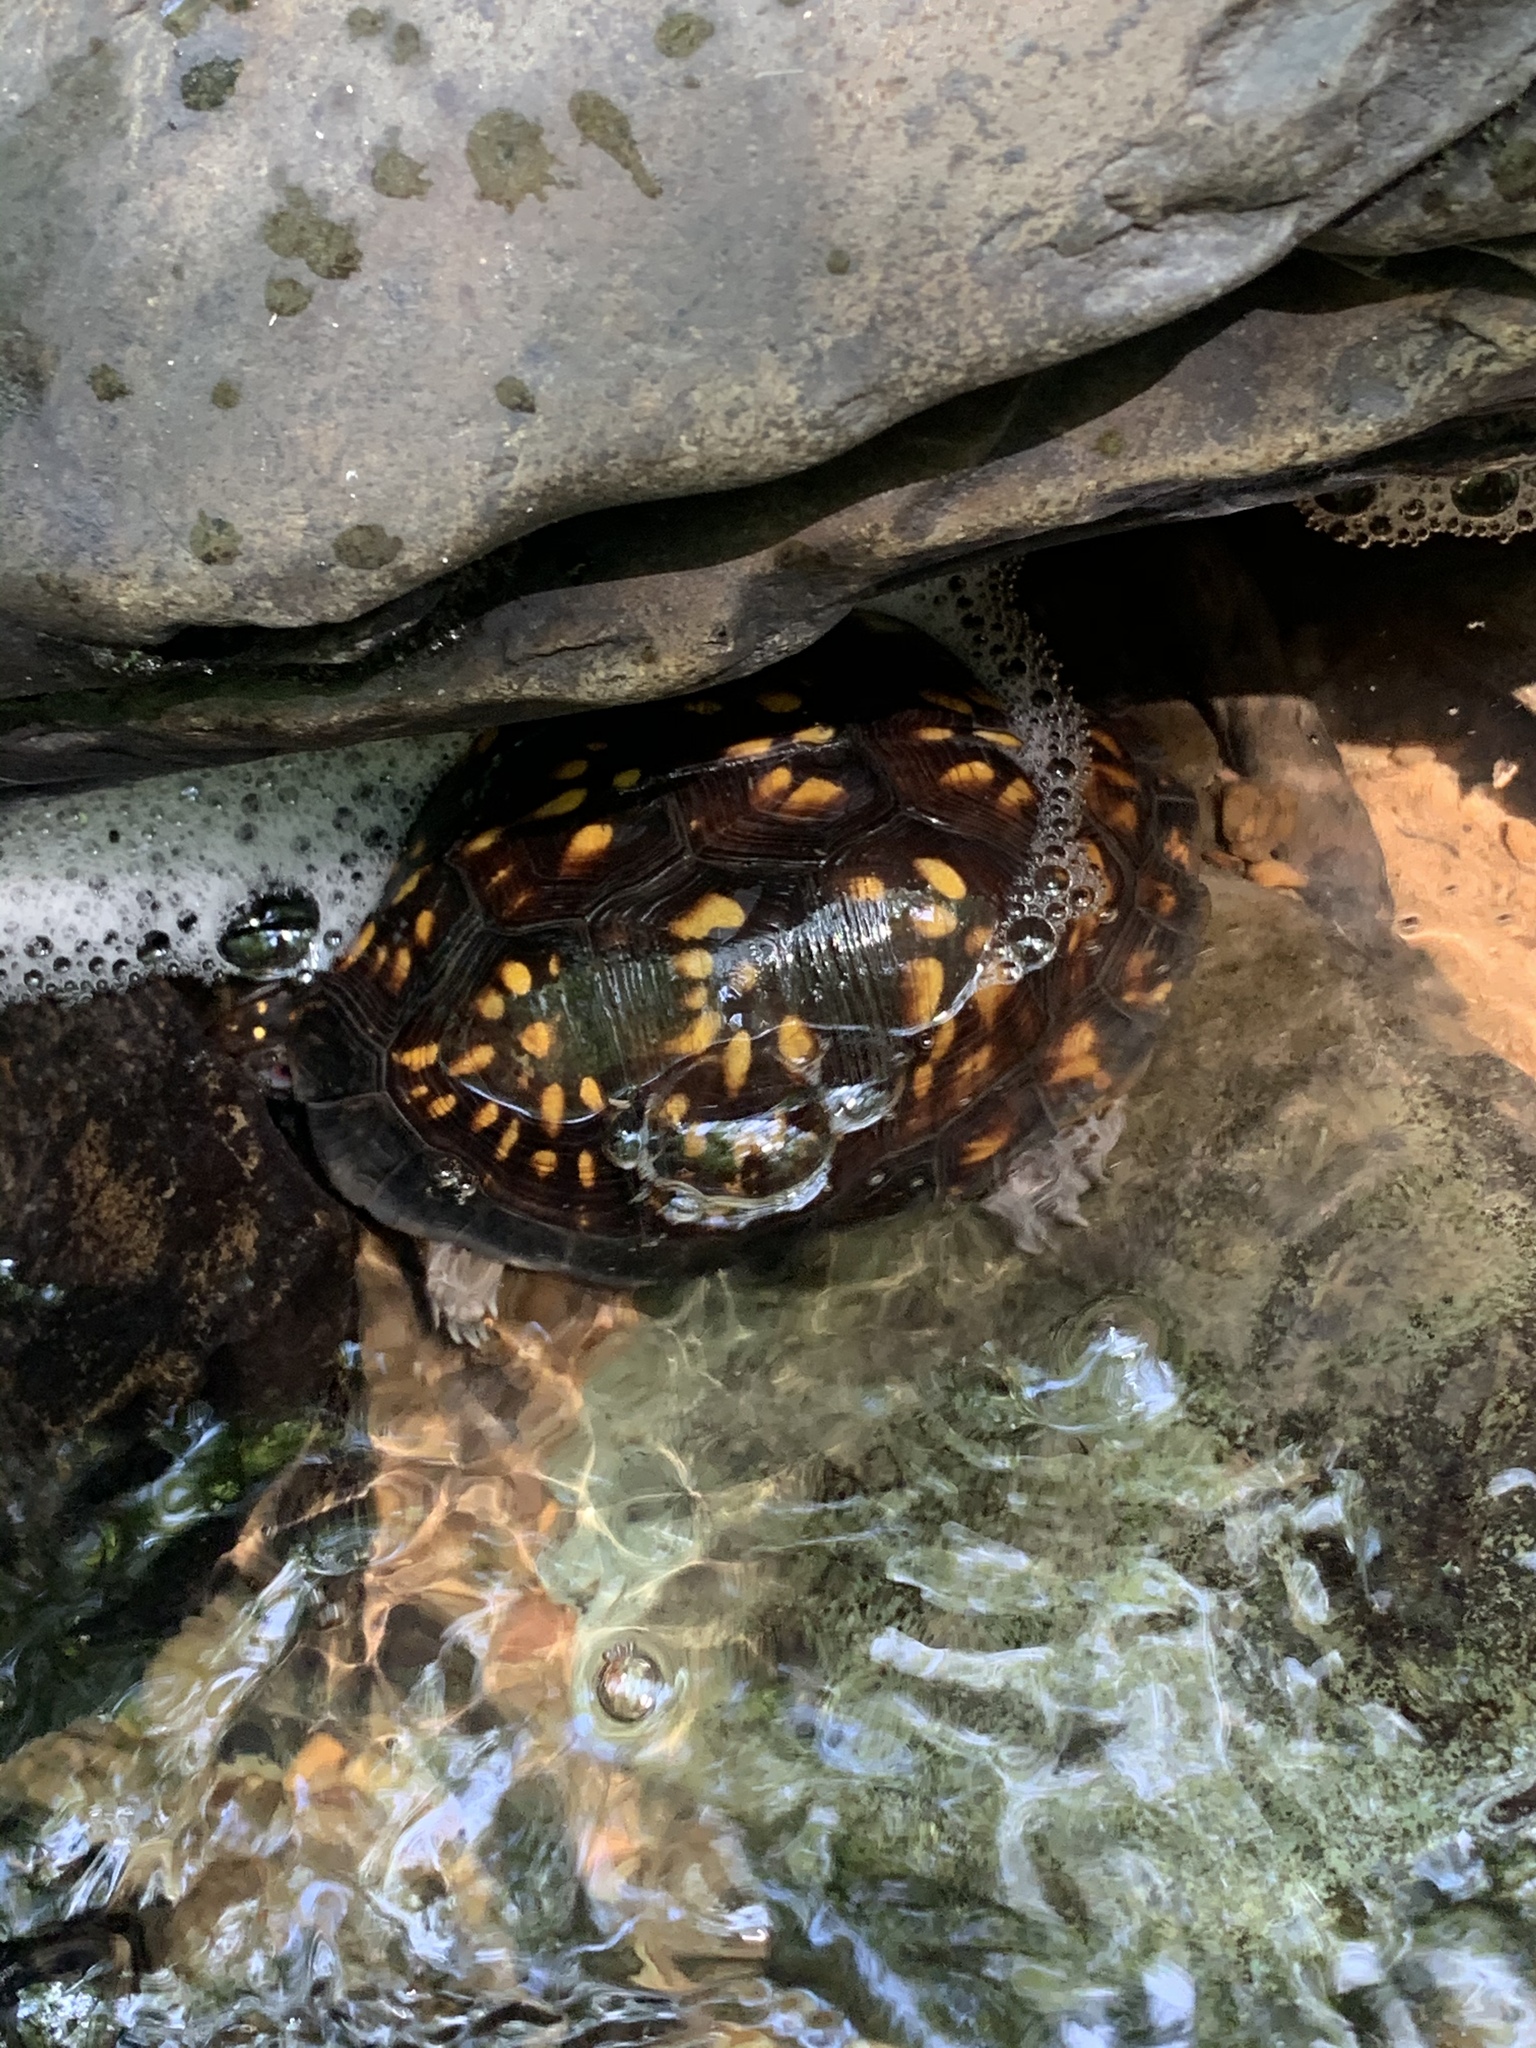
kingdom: Animalia
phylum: Chordata
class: Testudines
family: Emydidae
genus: Terrapene
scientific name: Terrapene carolina
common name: Common box turtle
